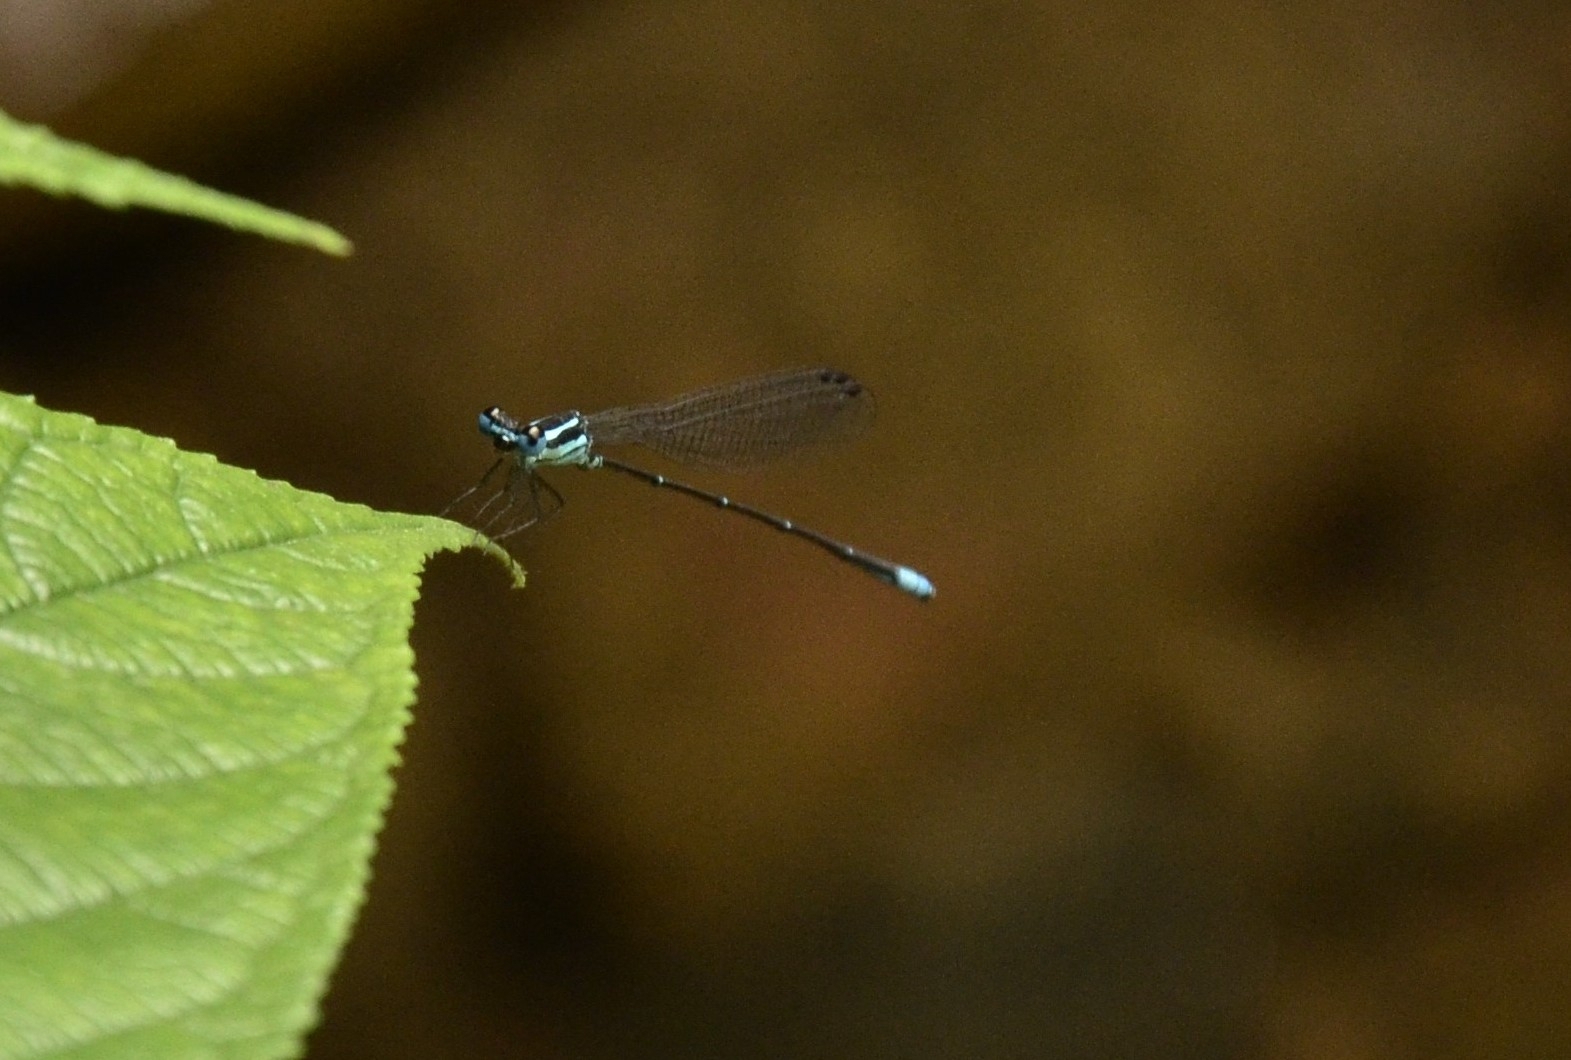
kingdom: Animalia
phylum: Arthropoda
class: Insecta
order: Odonata
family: Platycnemididae
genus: Caconeura
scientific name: Caconeura risi
